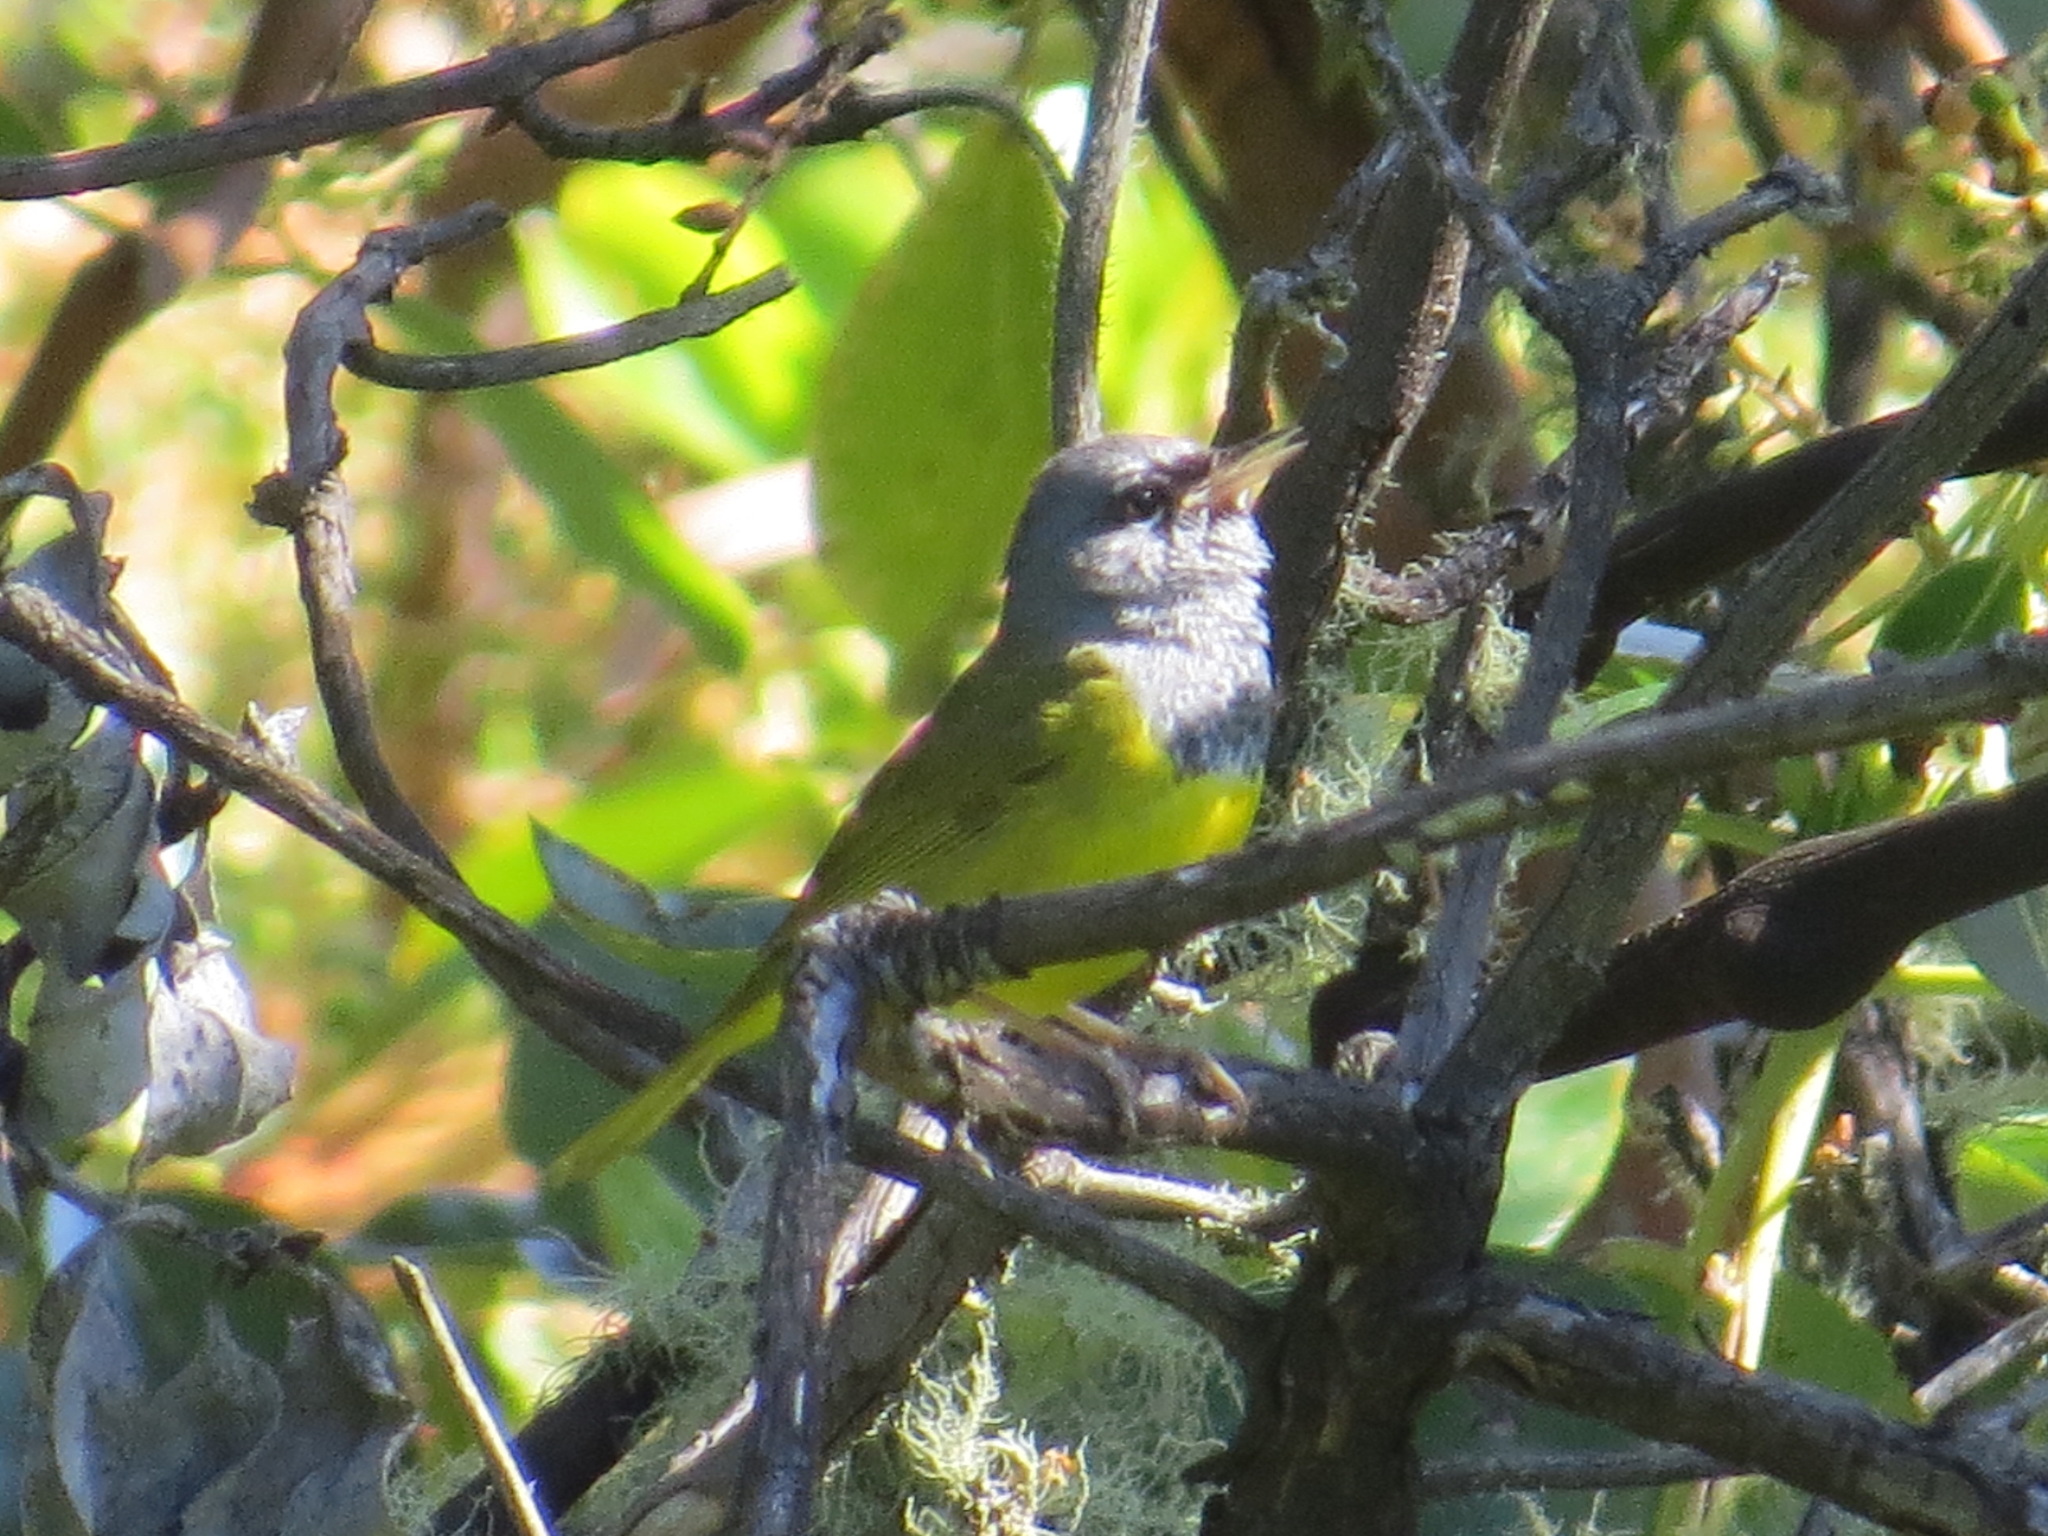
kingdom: Animalia
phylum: Chordata
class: Aves
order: Passeriformes
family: Parulidae
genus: Geothlypis
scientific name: Geothlypis tolmiei
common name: Macgillivray's warbler
